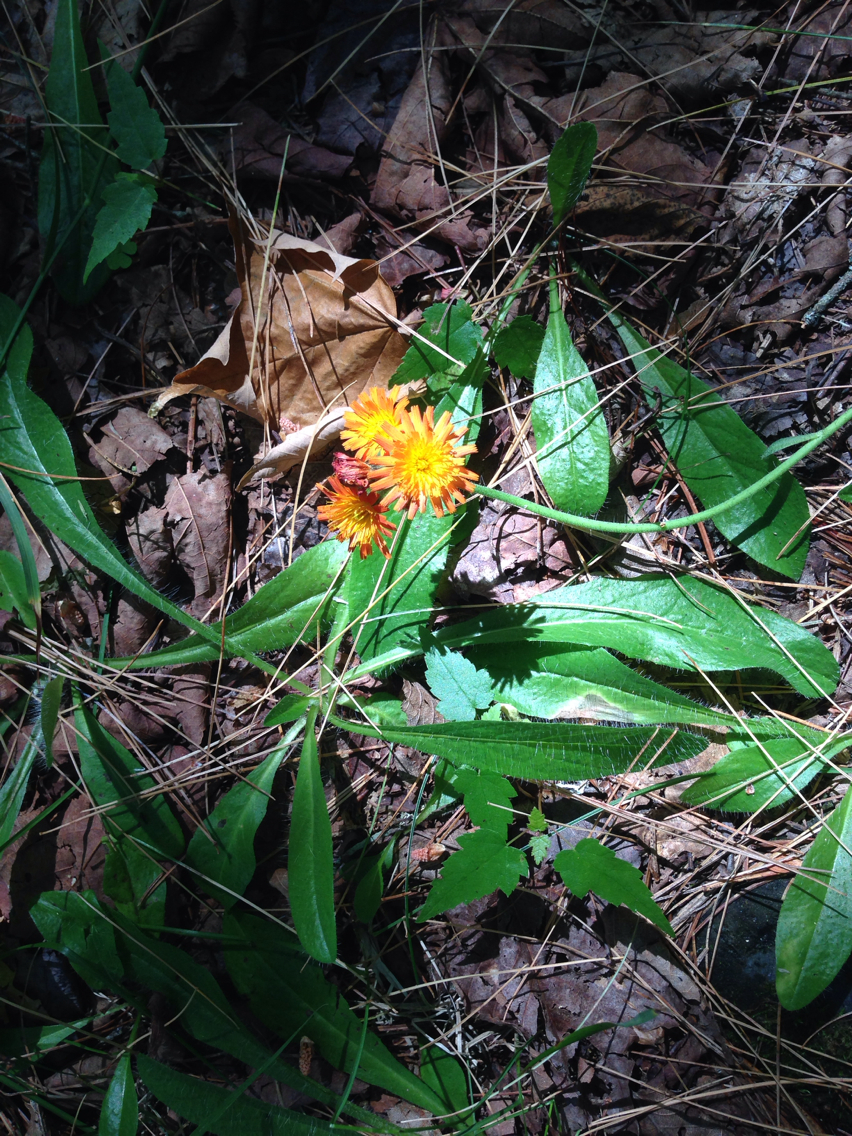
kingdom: Plantae
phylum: Tracheophyta
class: Magnoliopsida
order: Asterales
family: Asteraceae
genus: Pilosella
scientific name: Pilosella aurantiaca
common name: Fox-and-cubs
